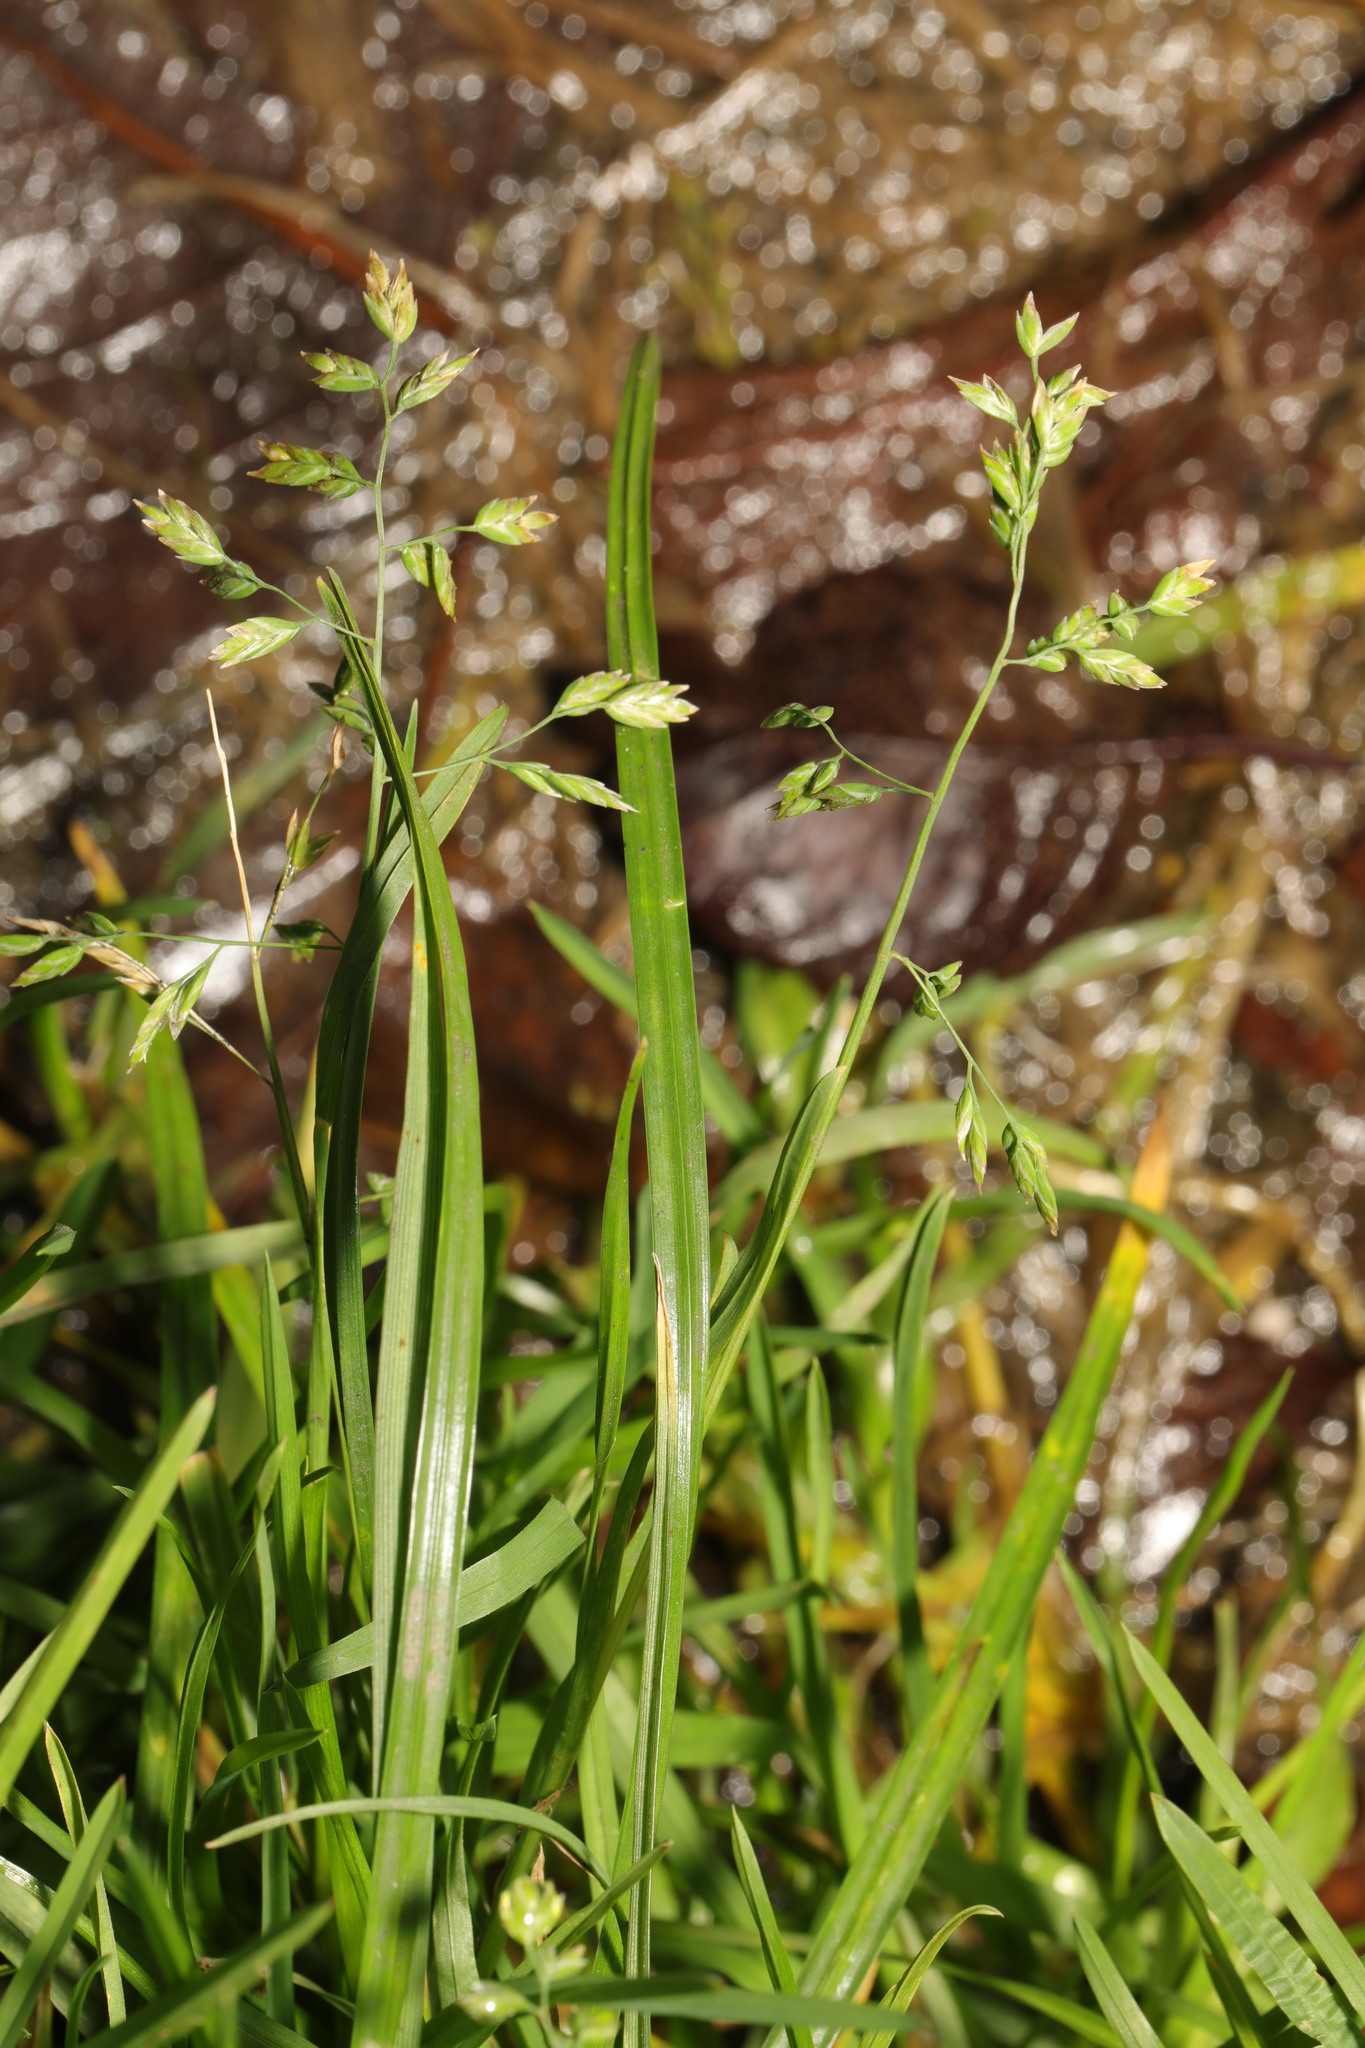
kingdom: Plantae
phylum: Tracheophyta
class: Liliopsida
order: Poales
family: Poaceae
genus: Poa
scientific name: Poa annua
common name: Annual bluegrass
